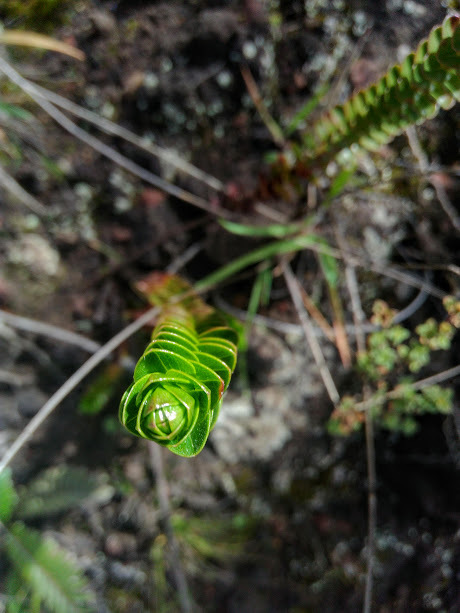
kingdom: Plantae
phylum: Tracheophyta
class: Magnoliopsida
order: Malpighiales
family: Hypericaceae
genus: Hypericum
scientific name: Hypericum mexicanum
